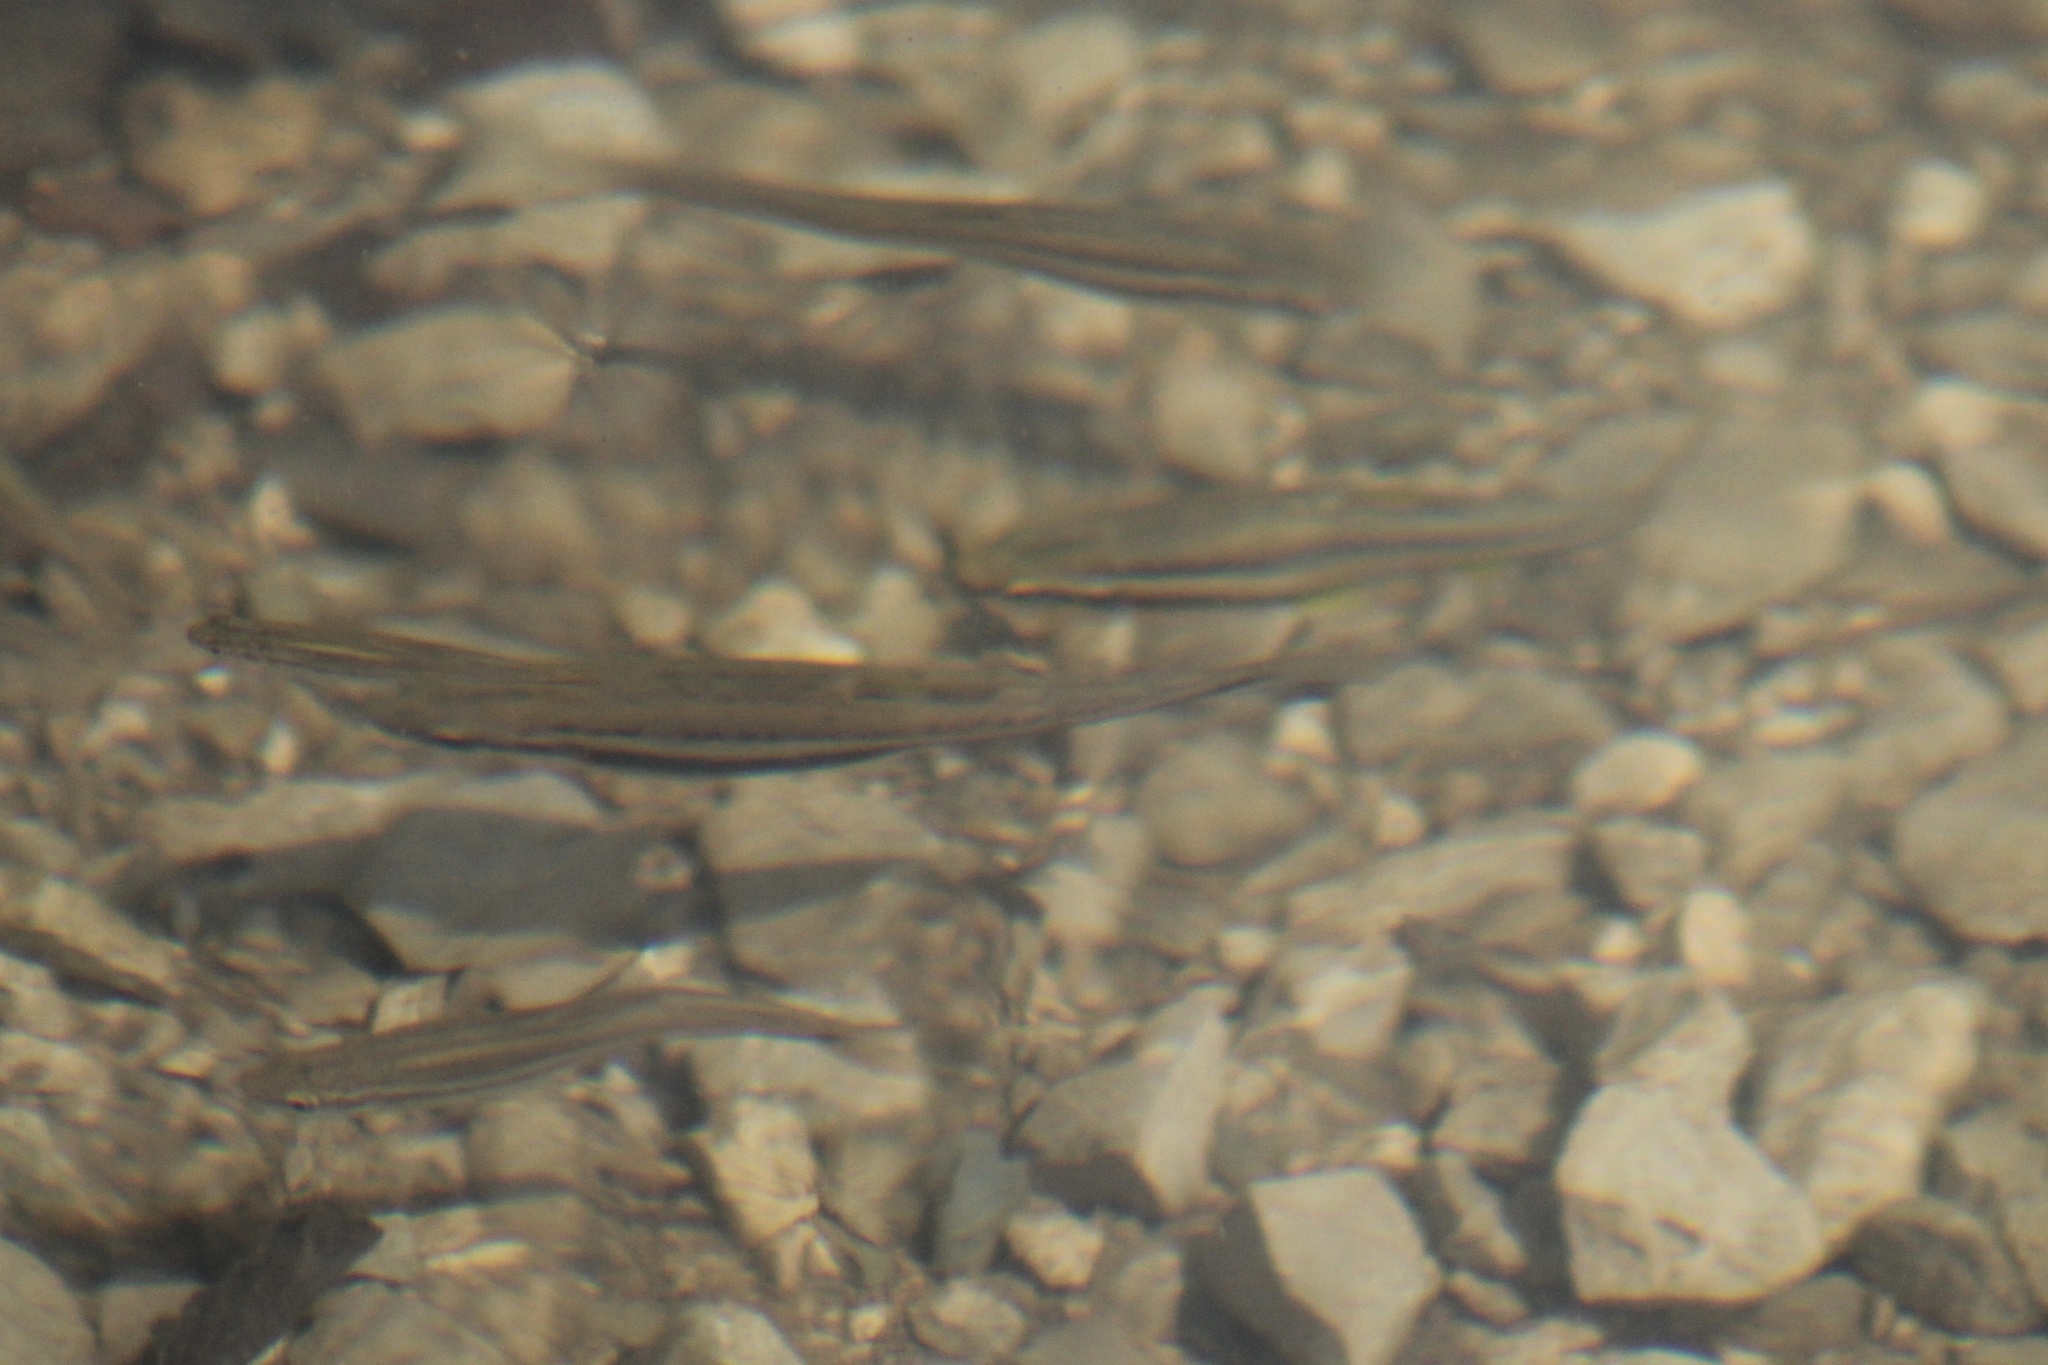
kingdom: Animalia
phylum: Chordata
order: Cypriniformes
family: Cyprinidae
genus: Chrosomus
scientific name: Chrosomus erythrogaster
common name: Southern redbelly dace
